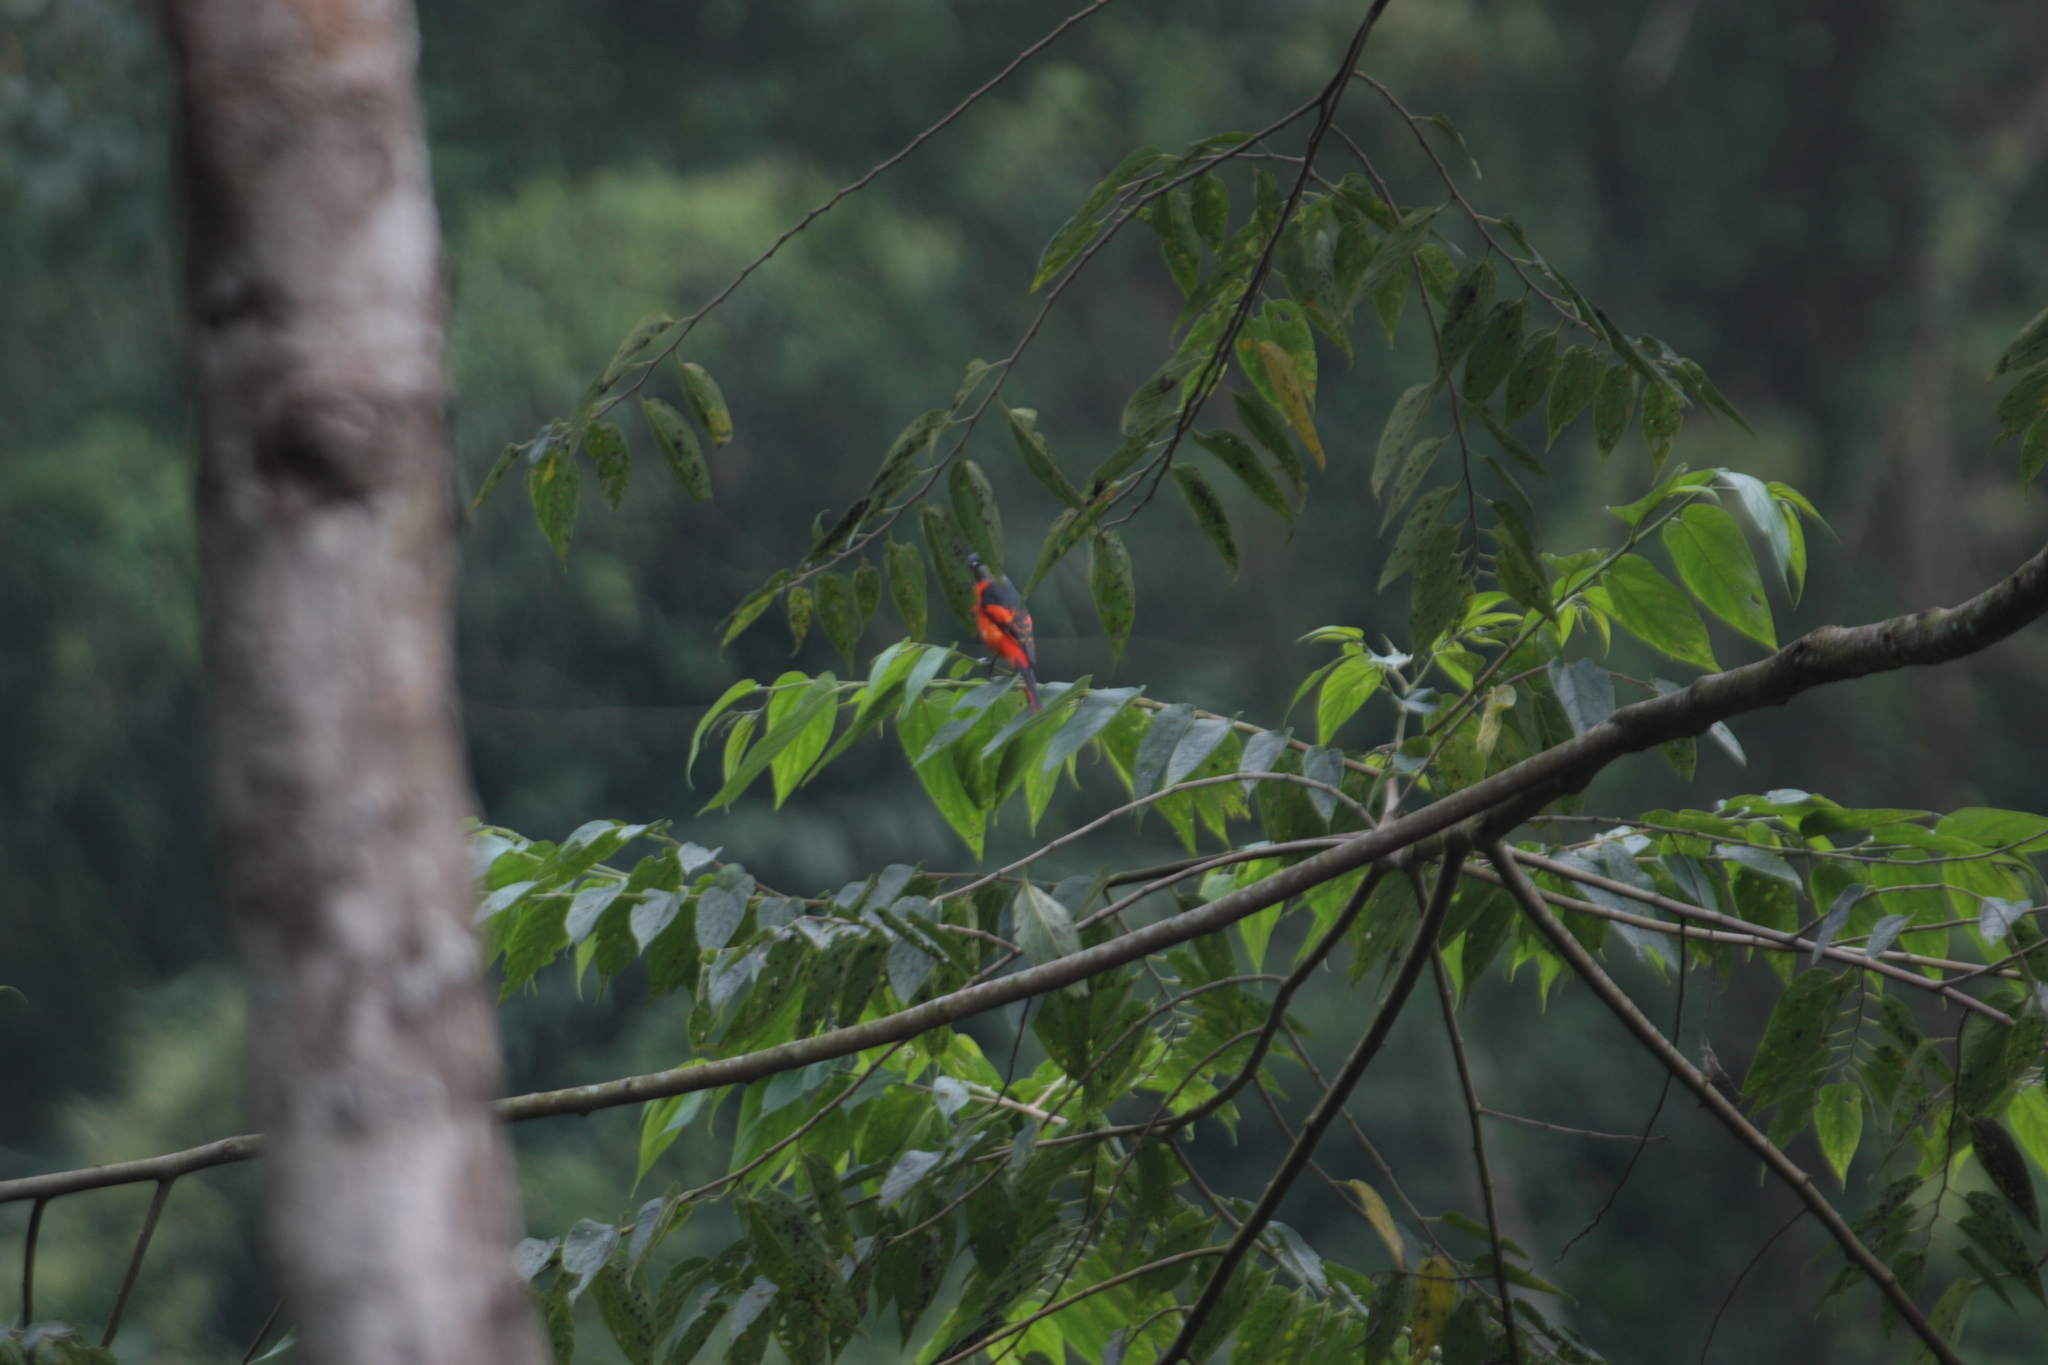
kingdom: Animalia
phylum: Chordata
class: Aves
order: Passeriformes
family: Campephagidae
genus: Pericrocotus
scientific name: Pericrocotus solaris
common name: Grey-chinned minivet
